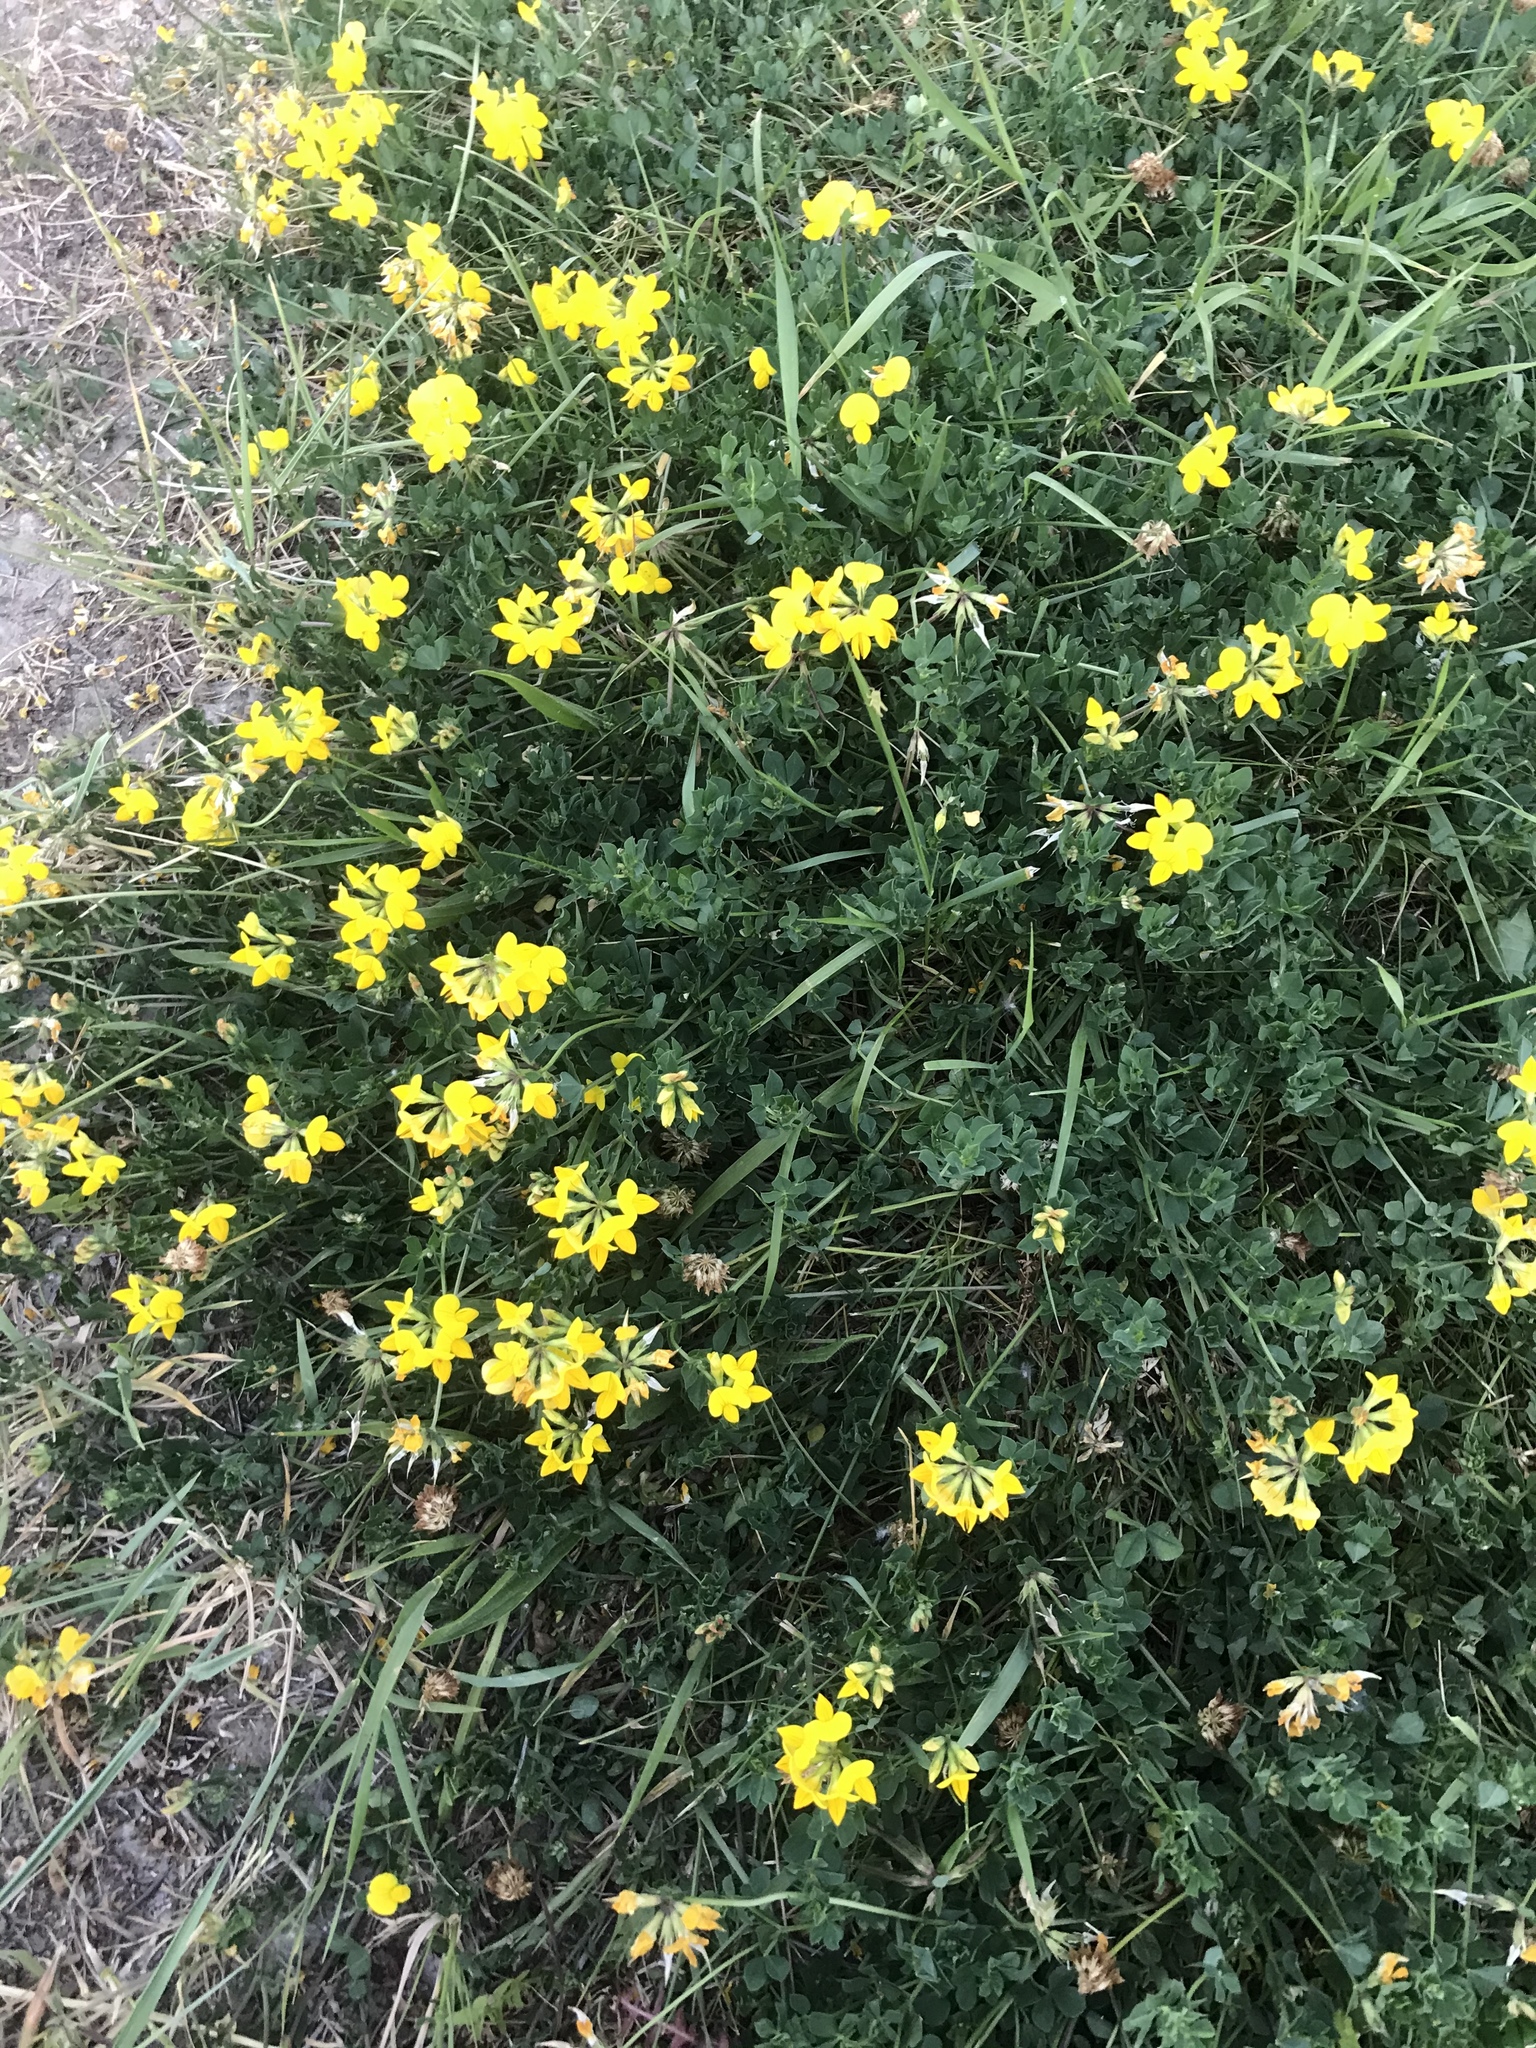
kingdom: Plantae
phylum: Tracheophyta
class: Magnoliopsida
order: Fabales
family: Fabaceae
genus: Lotus
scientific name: Lotus corniculatus
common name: Common bird's-foot-trefoil
